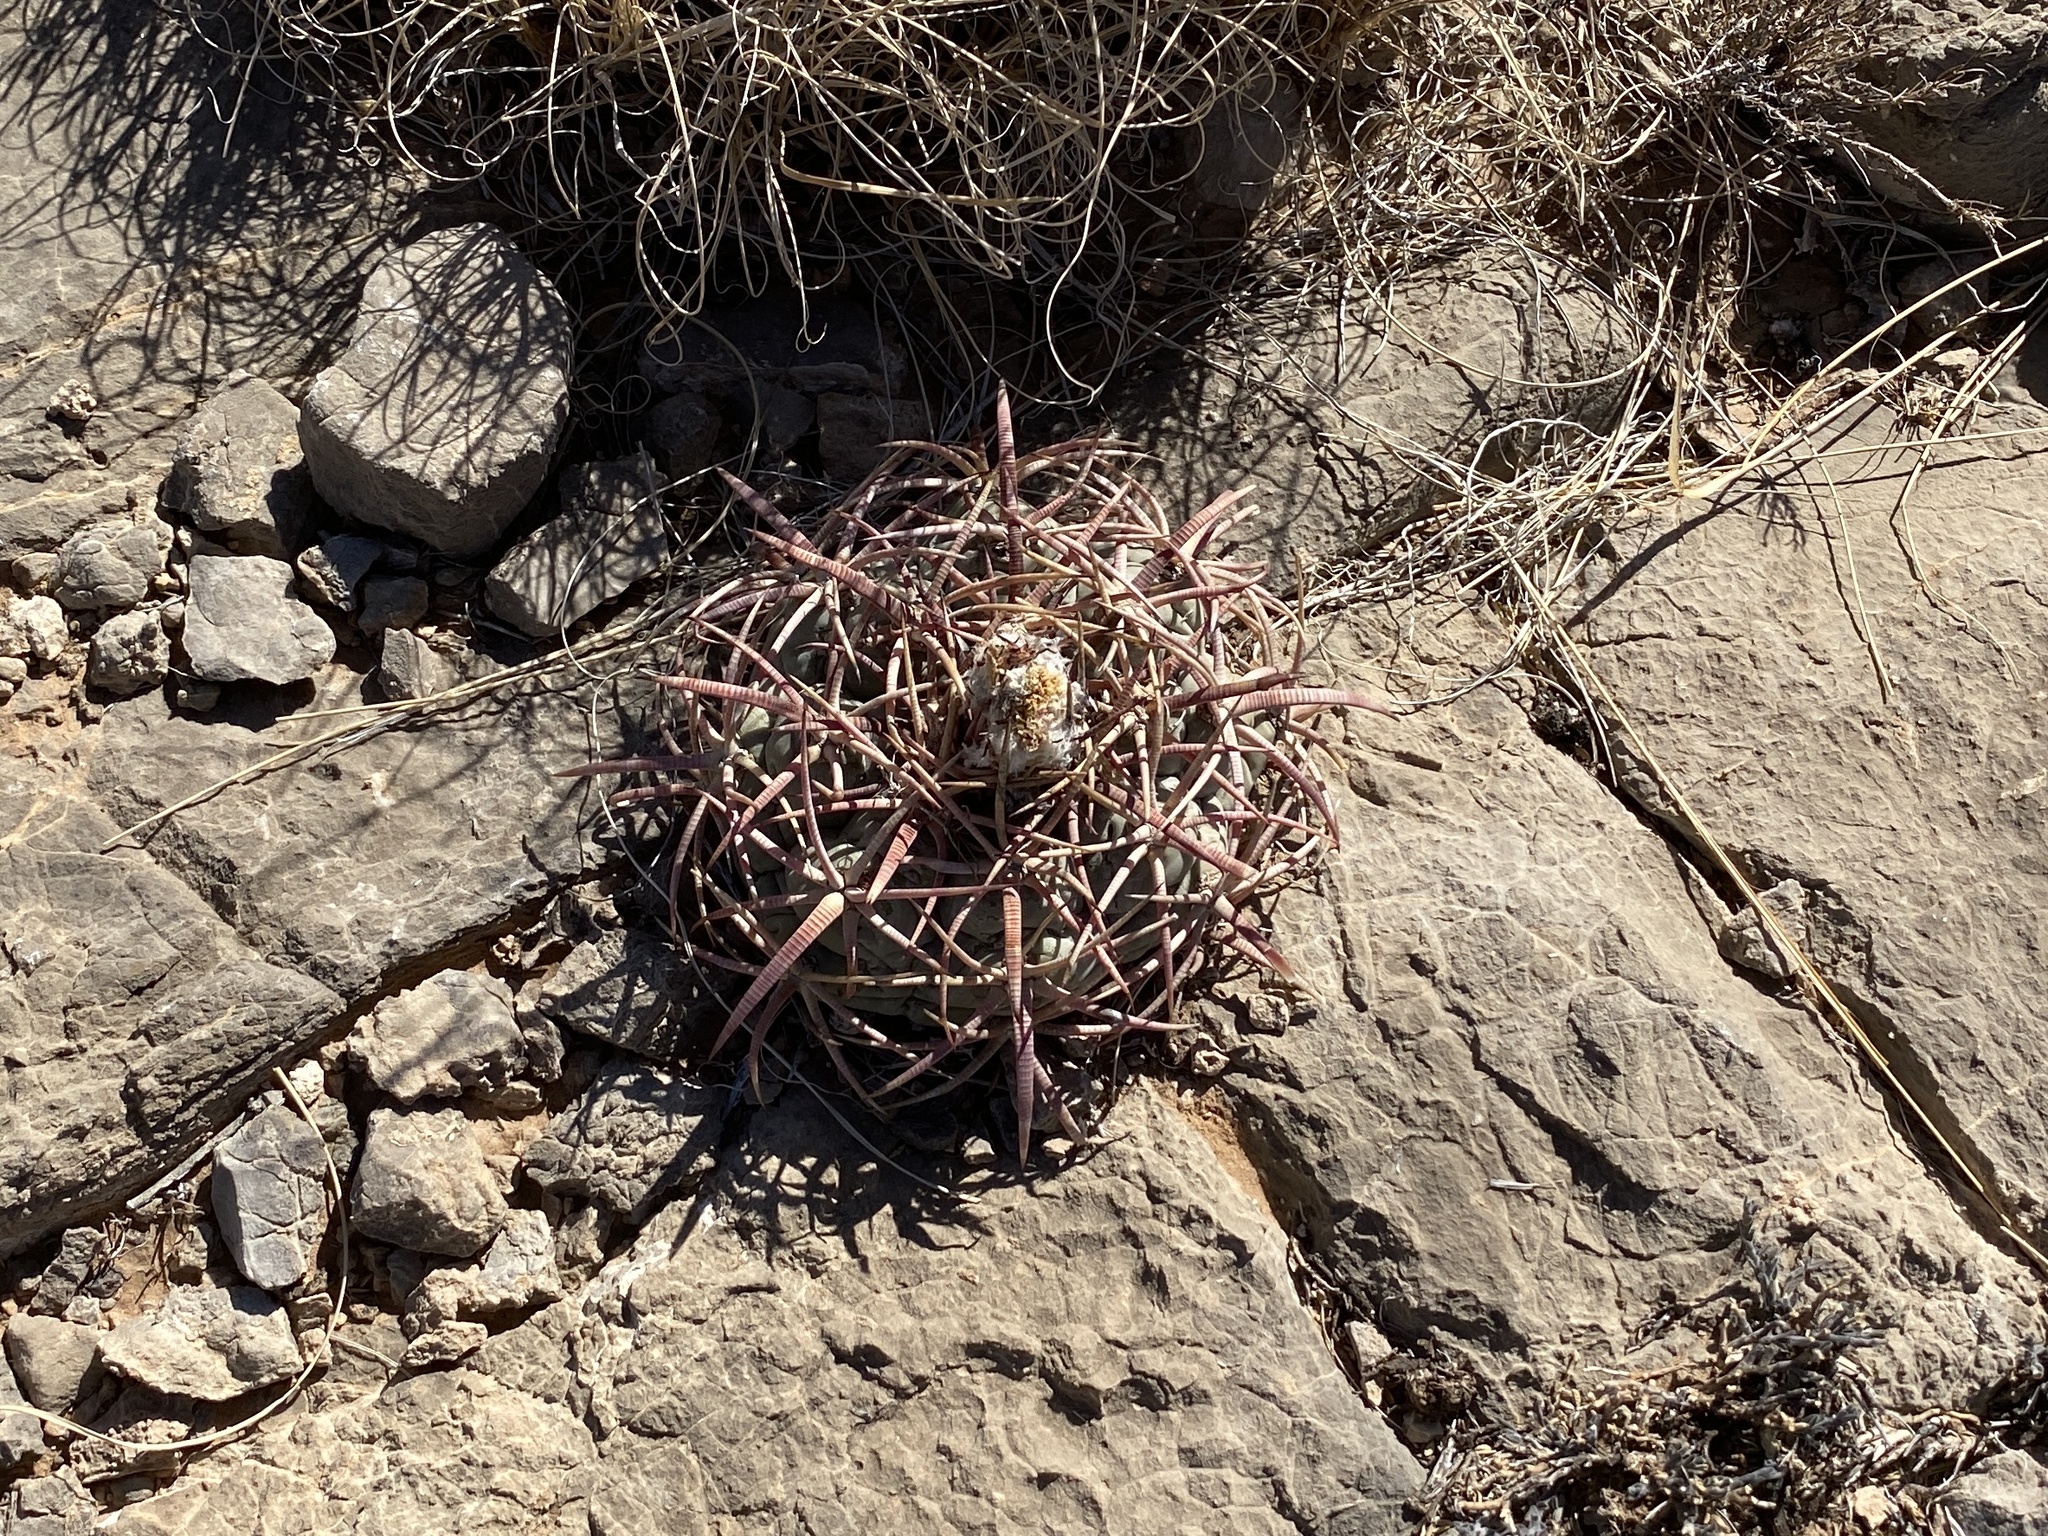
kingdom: Plantae
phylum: Tracheophyta
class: Magnoliopsida
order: Caryophyllales
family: Cactaceae
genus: Echinocactus
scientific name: Echinocactus horizonthalonius
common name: Devilshead
